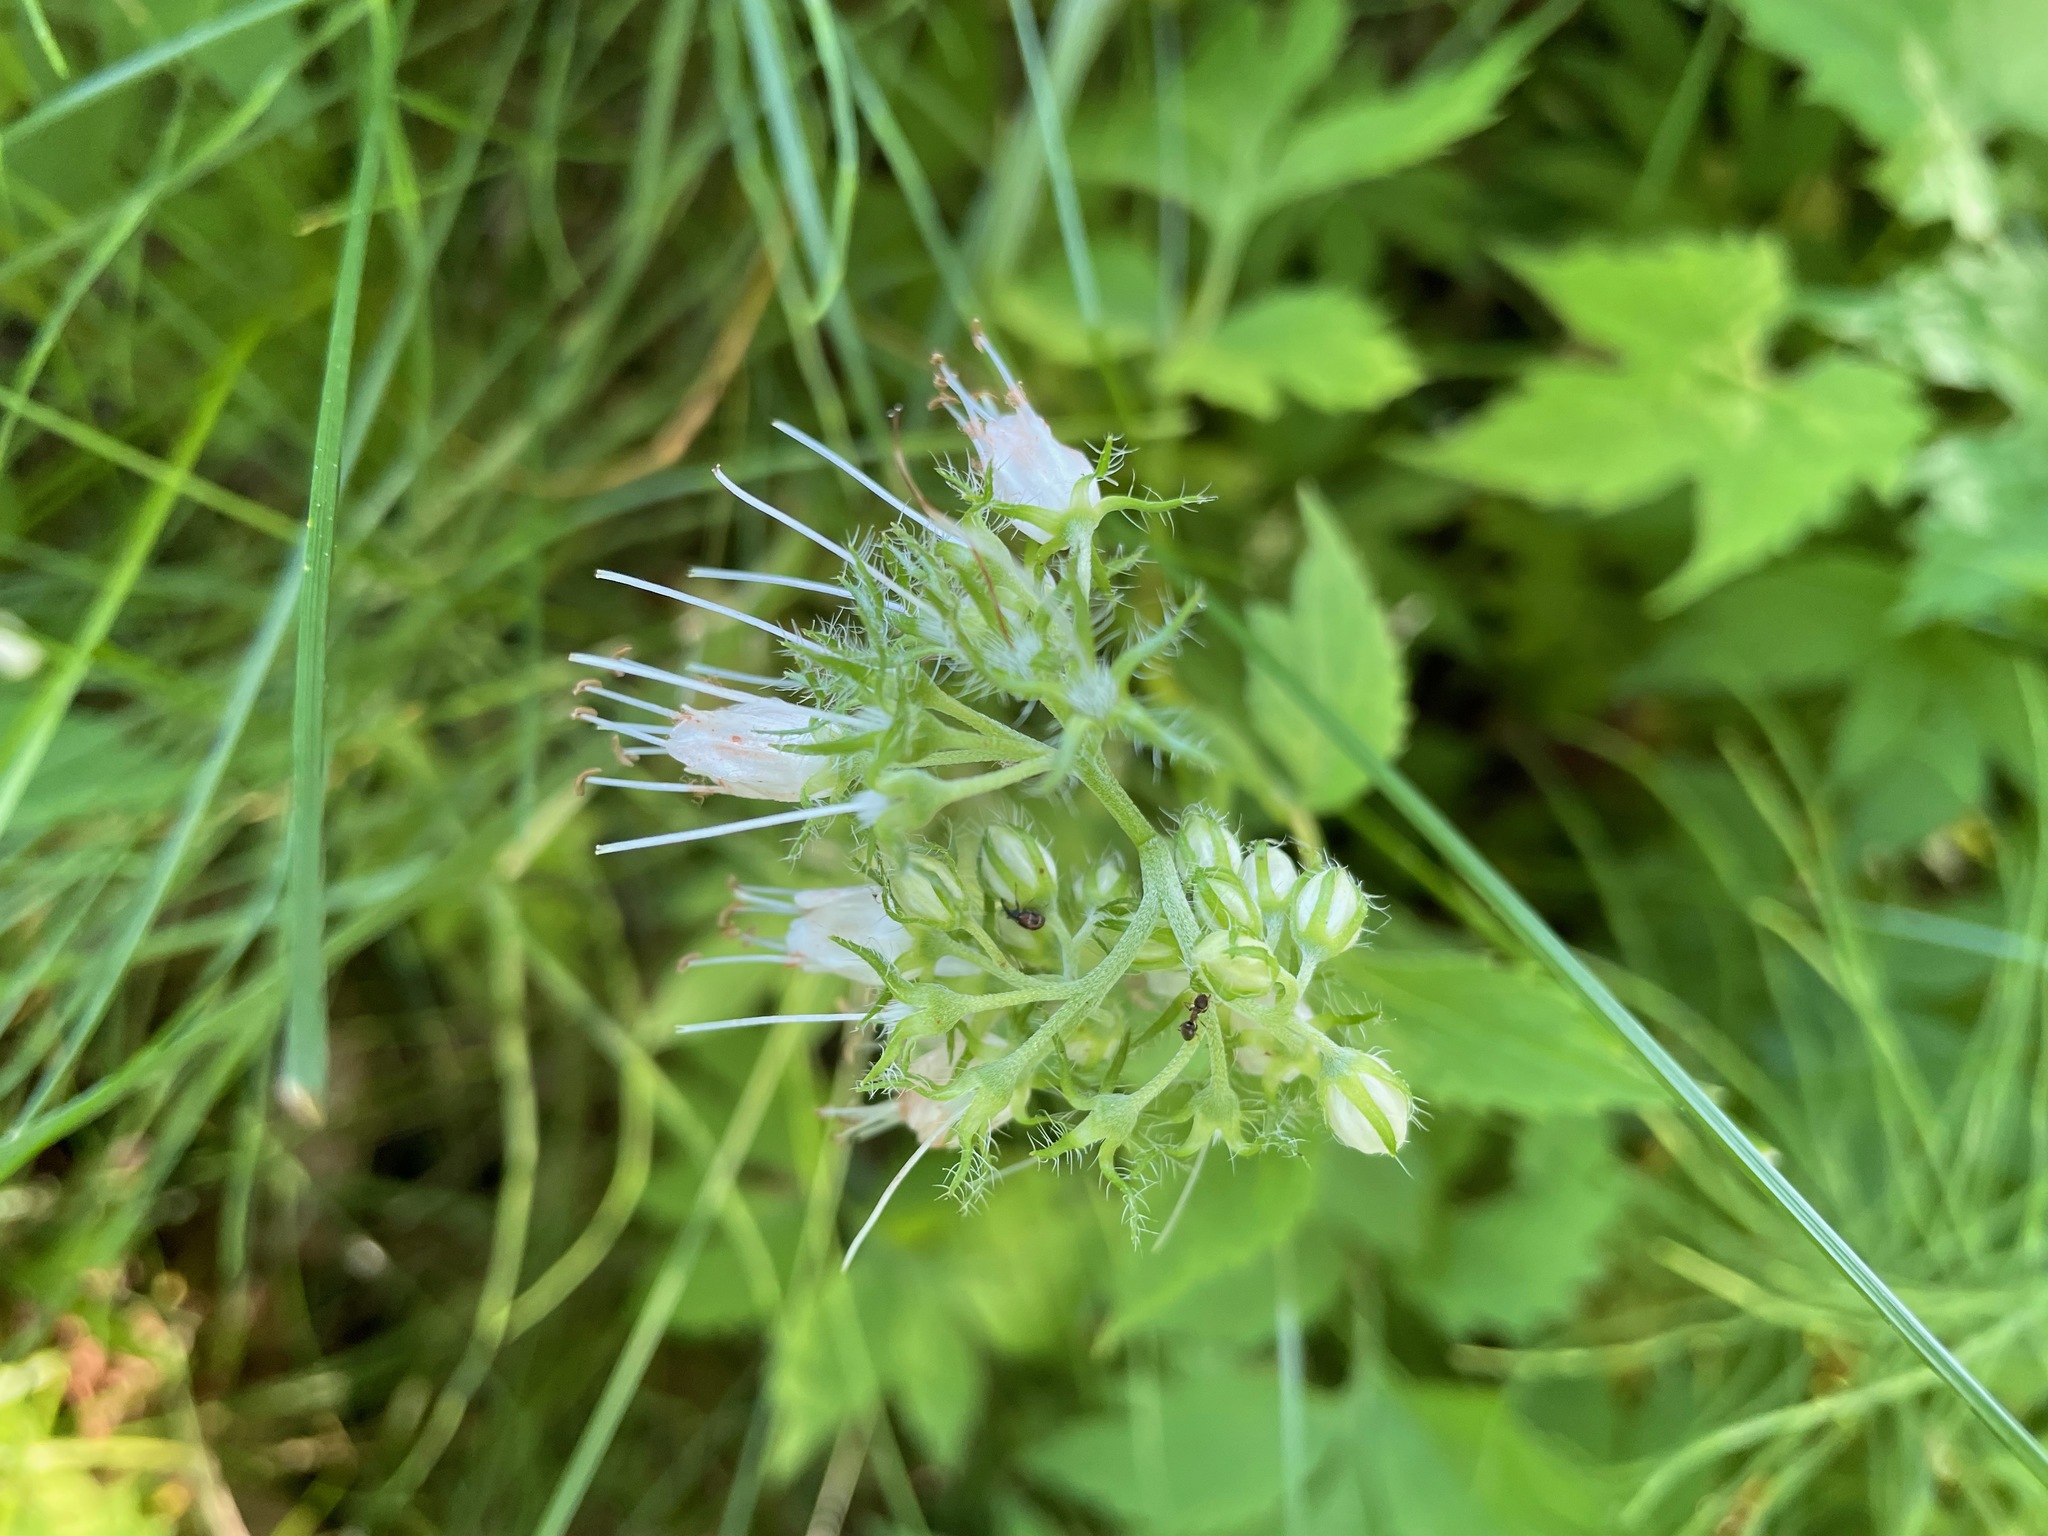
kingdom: Plantae
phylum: Tracheophyta
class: Magnoliopsida
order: Boraginales
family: Hydrophyllaceae
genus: Hydrophyllum
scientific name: Hydrophyllum virginianum
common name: Virginia waterleaf
